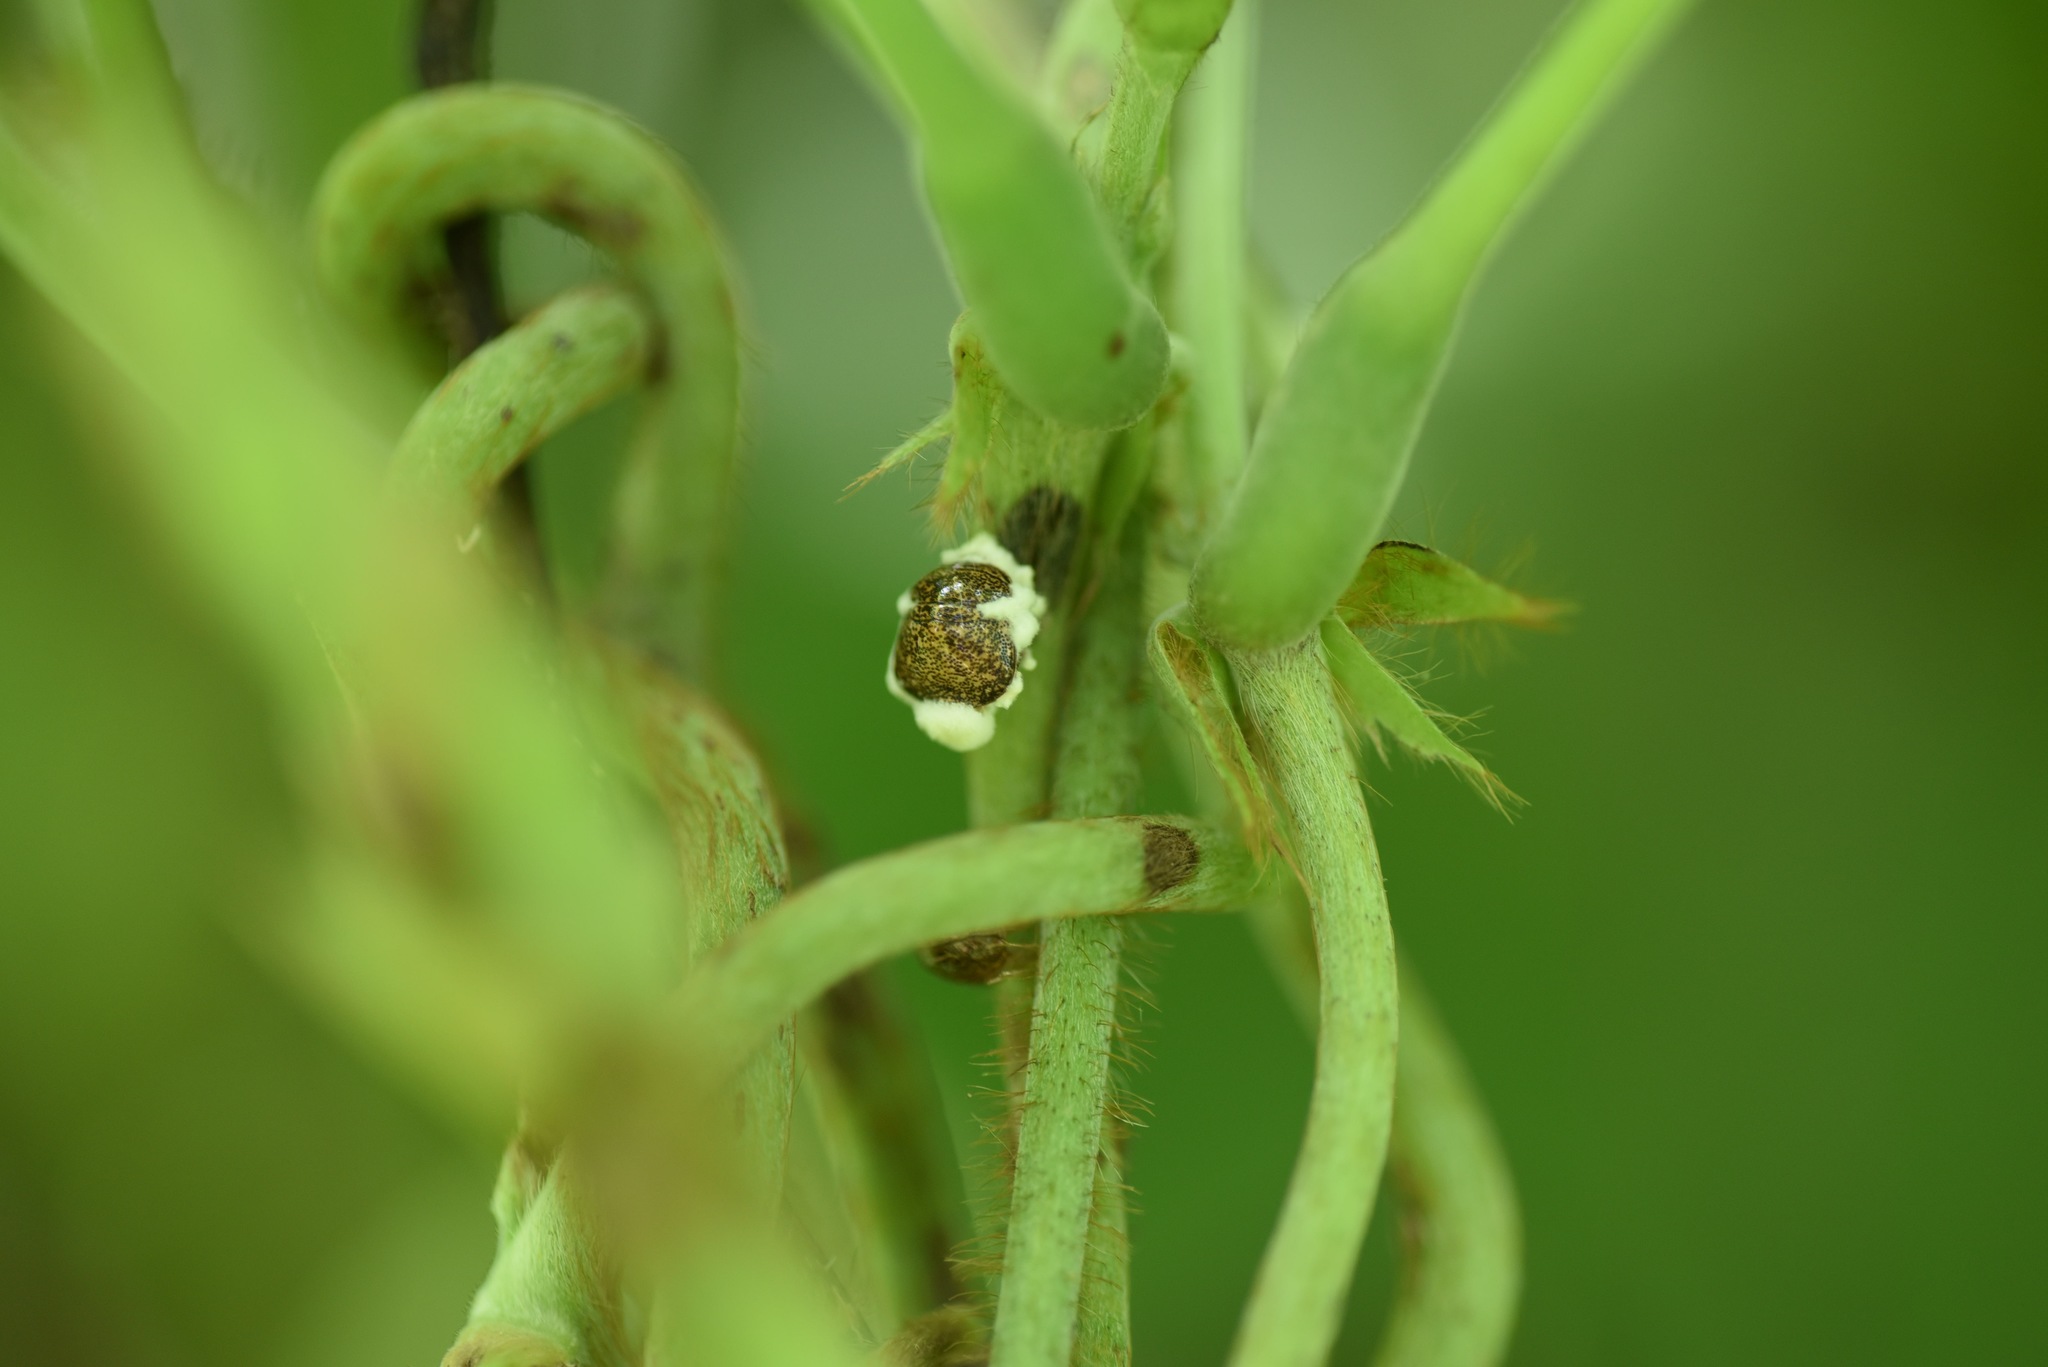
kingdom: Animalia
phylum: Arthropoda
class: Insecta
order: Hemiptera
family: Plataspidae
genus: Megacopta
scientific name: Megacopta cribraria
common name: Bean plataspid
